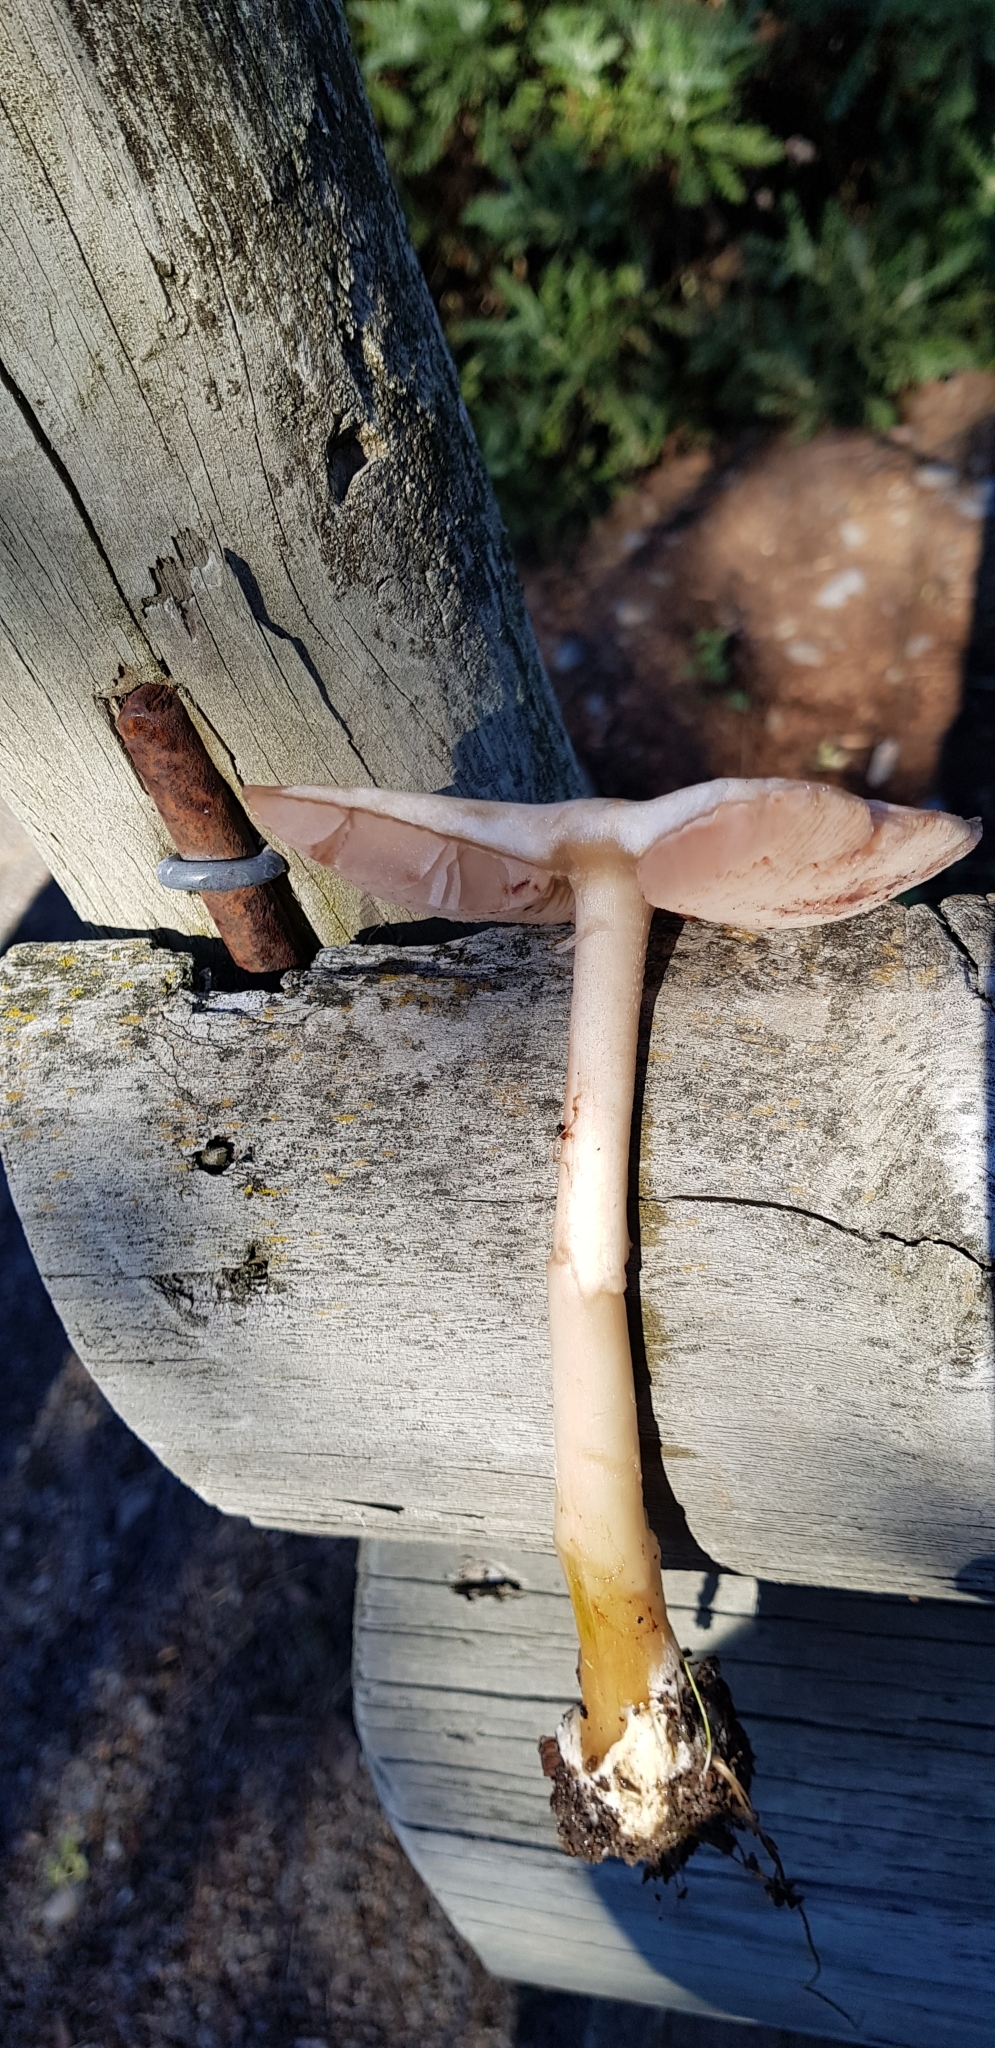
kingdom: Fungi
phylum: Basidiomycota
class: Agaricomycetes
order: Agaricales
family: Pluteaceae
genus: Volvopluteus
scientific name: Volvopluteus gloiocephalus
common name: Stubble rosegill
